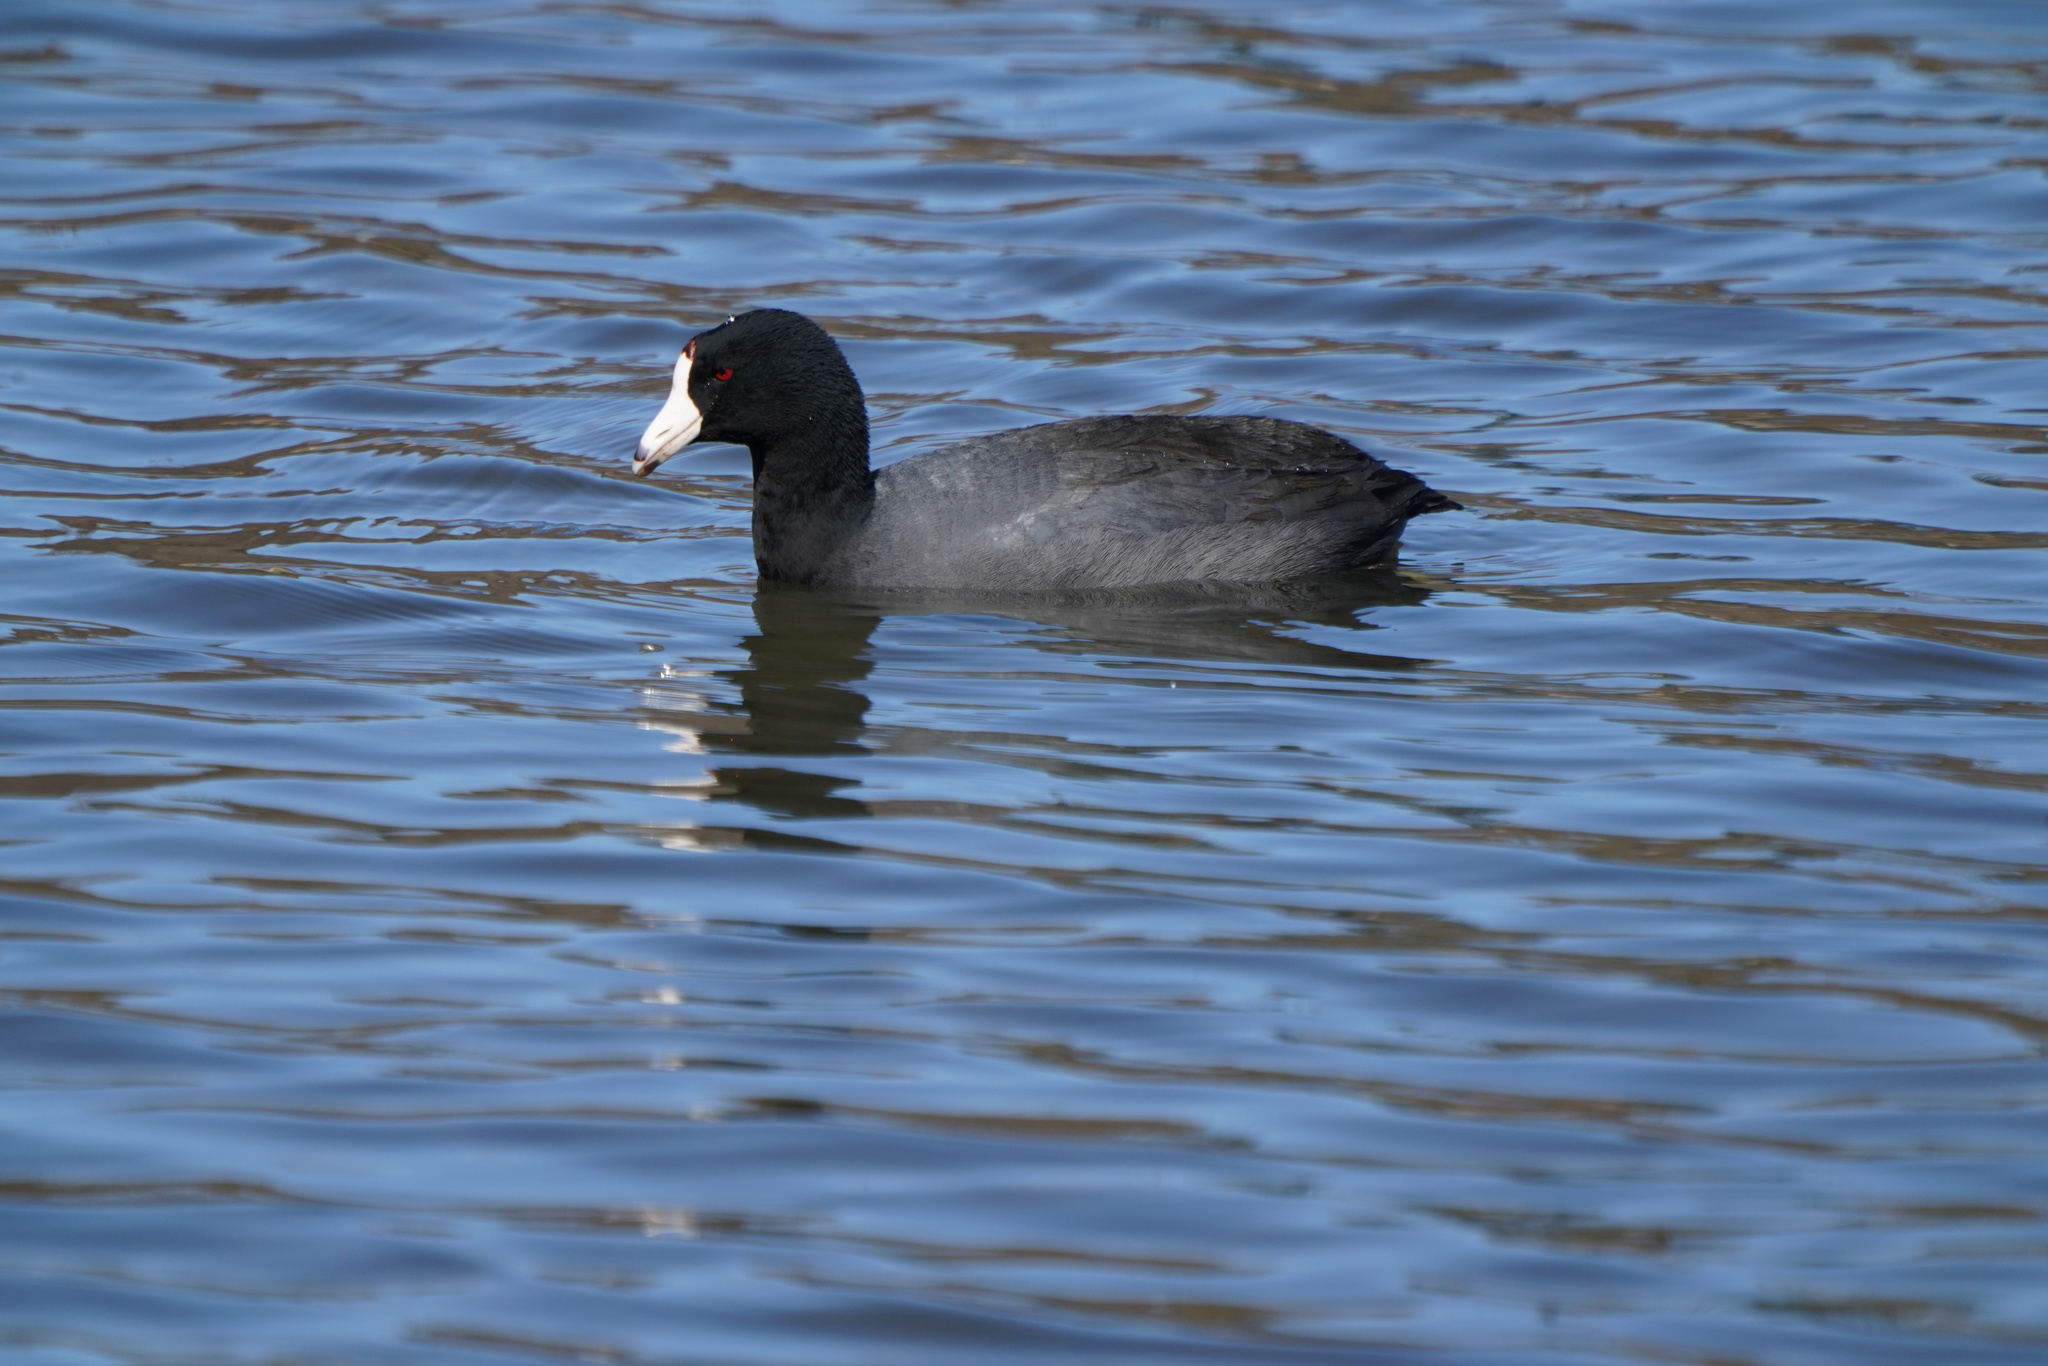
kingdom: Animalia
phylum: Chordata
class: Aves
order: Gruiformes
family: Rallidae
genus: Fulica
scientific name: Fulica americana
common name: American coot
